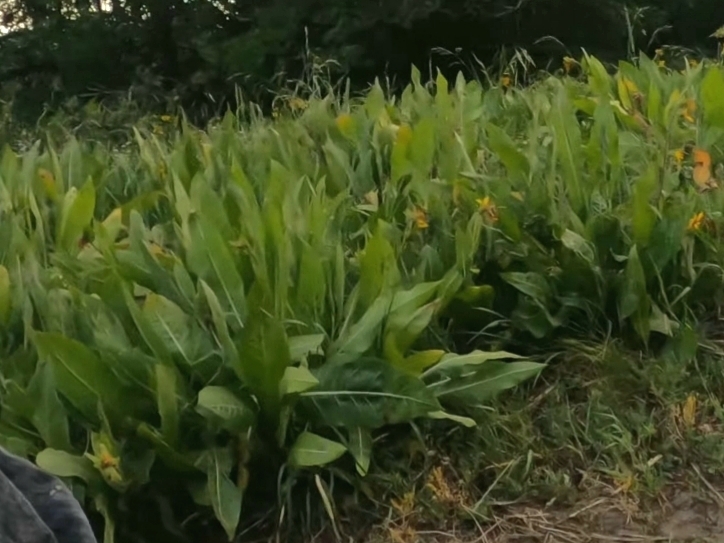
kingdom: Plantae
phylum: Tracheophyta
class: Magnoliopsida
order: Asterales
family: Asteraceae
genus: Wyethia
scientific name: Wyethia amplexicaulis
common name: Northern mule's-ears
